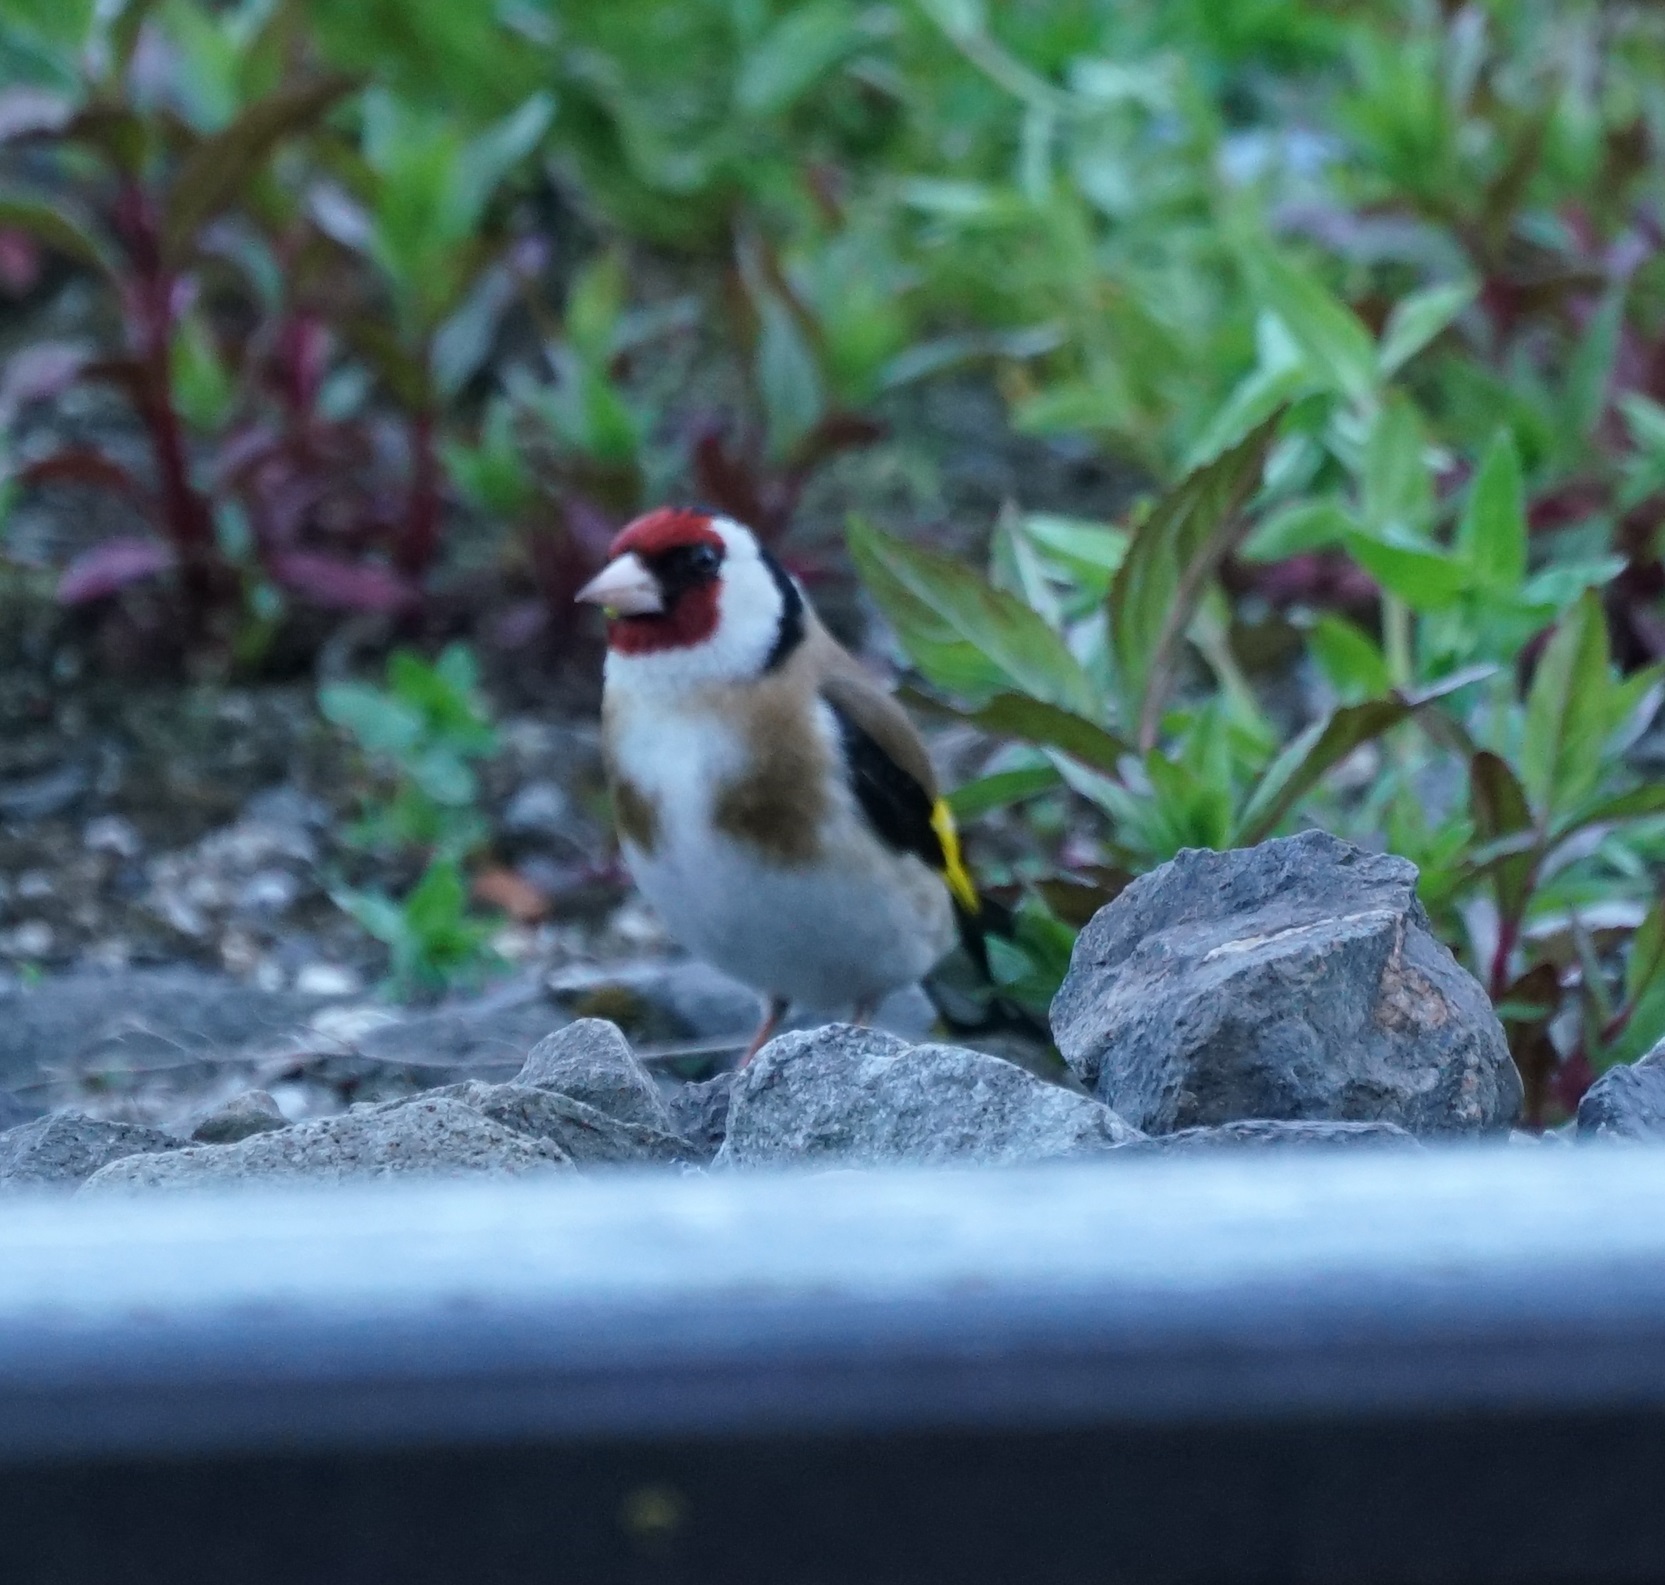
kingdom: Animalia
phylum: Chordata
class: Aves
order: Passeriformes
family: Fringillidae
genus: Carduelis
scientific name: Carduelis carduelis
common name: European goldfinch
